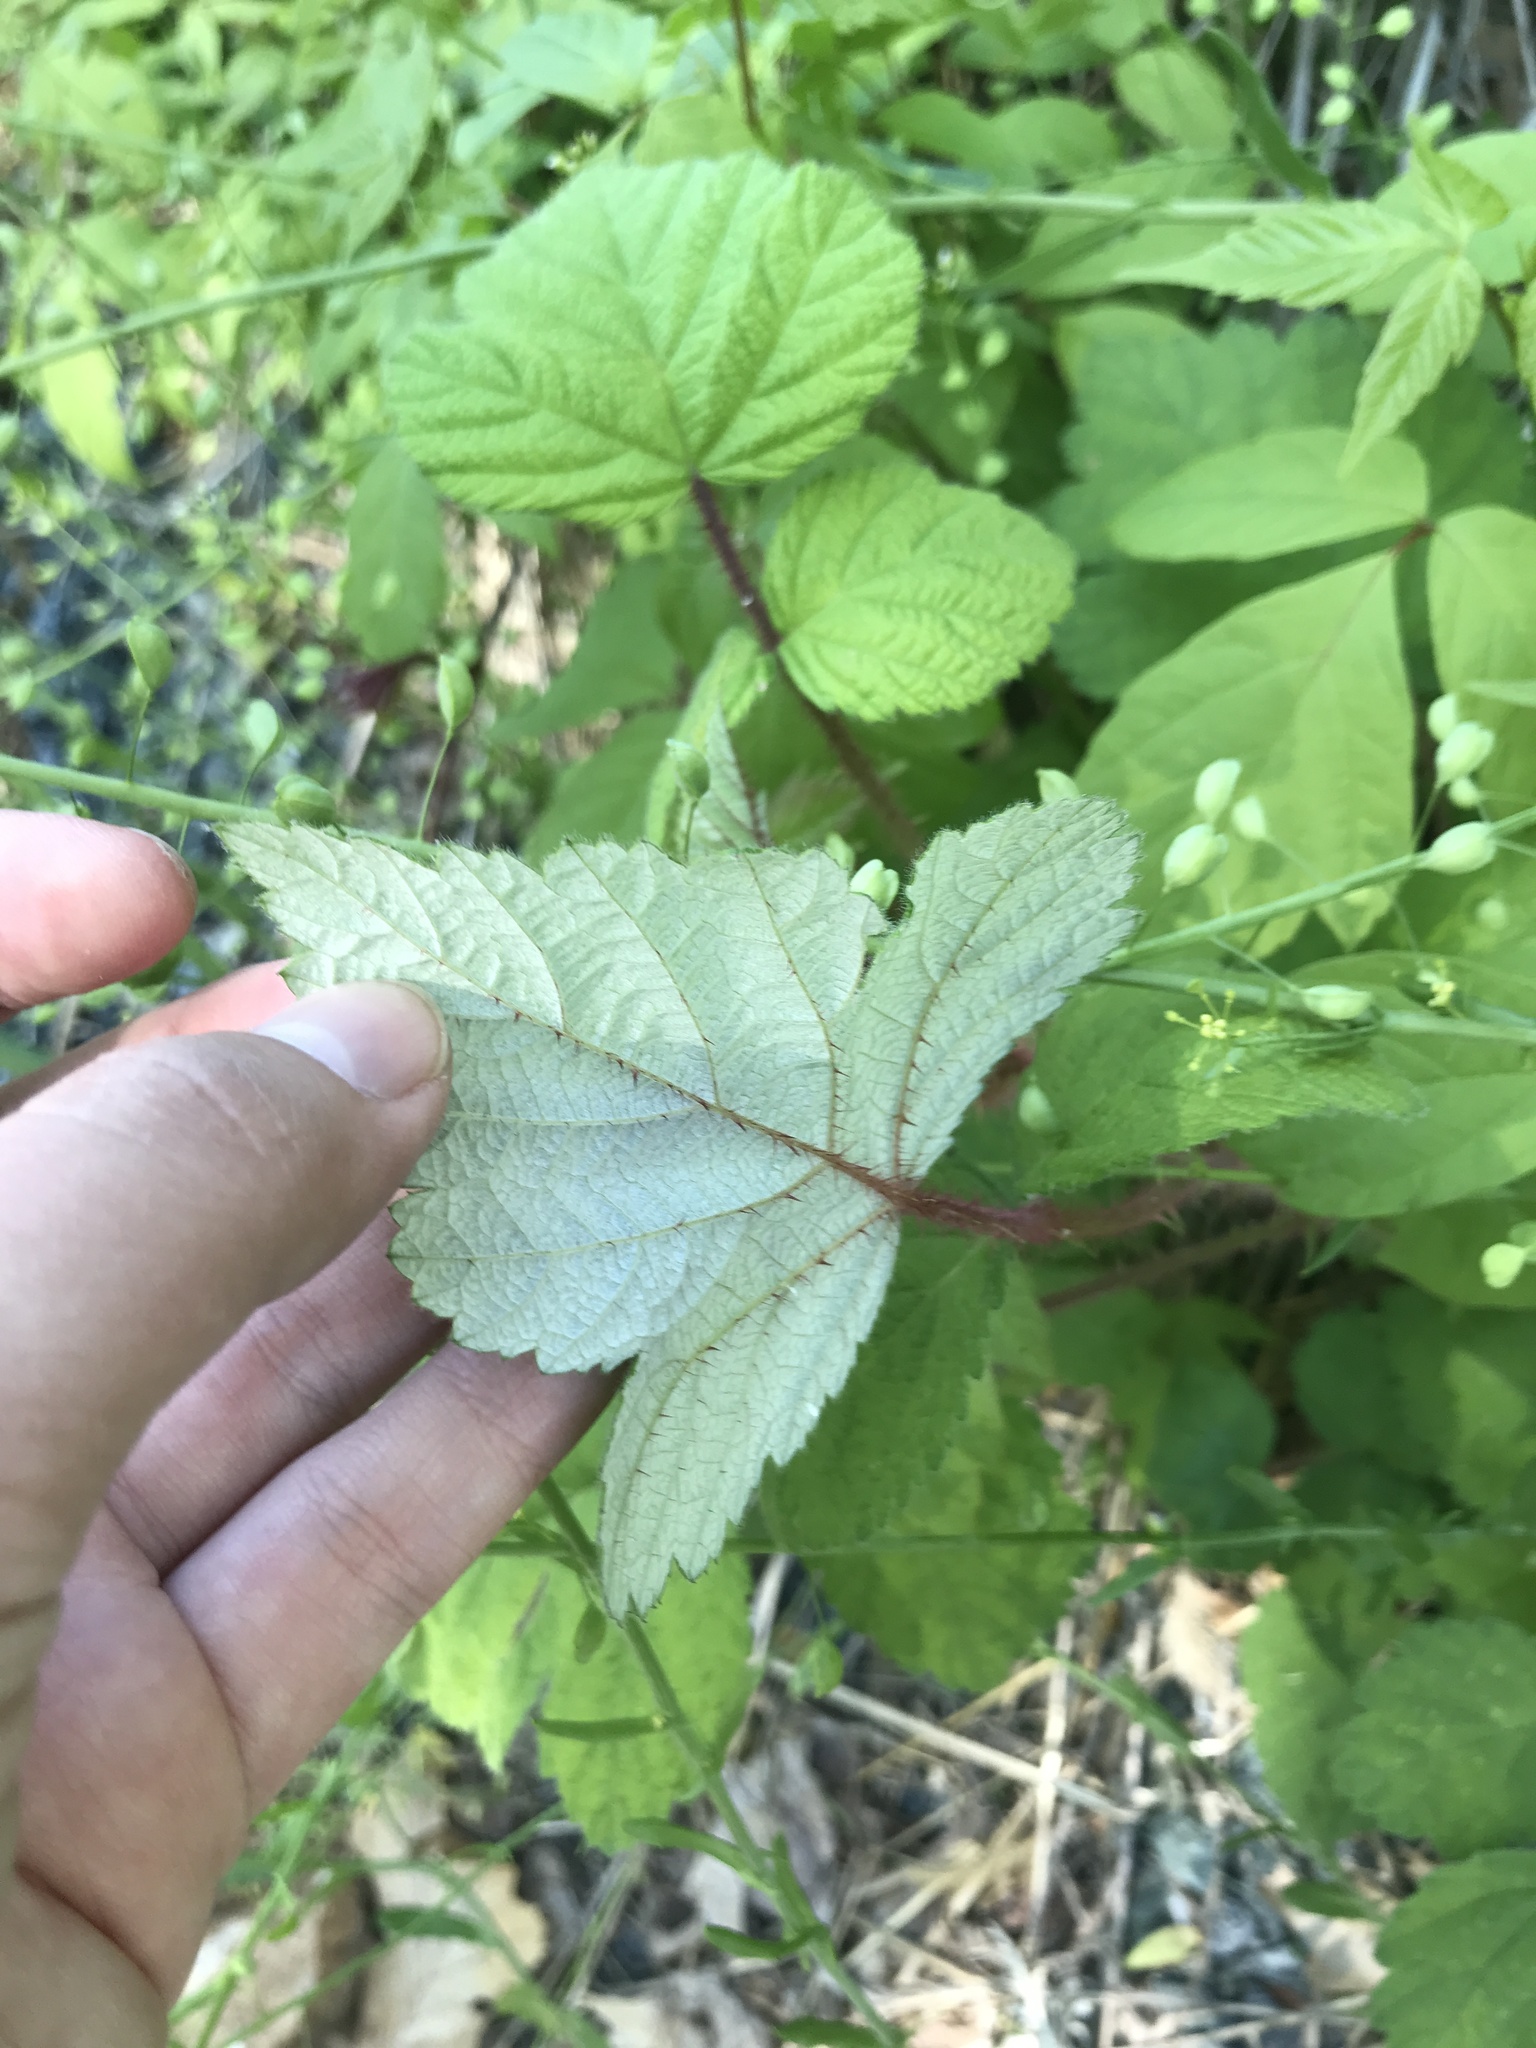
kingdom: Plantae
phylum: Tracheophyta
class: Magnoliopsida
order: Rosales
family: Rosaceae
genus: Rubus
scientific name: Rubus phoenicolasius
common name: Japanese wineberry
